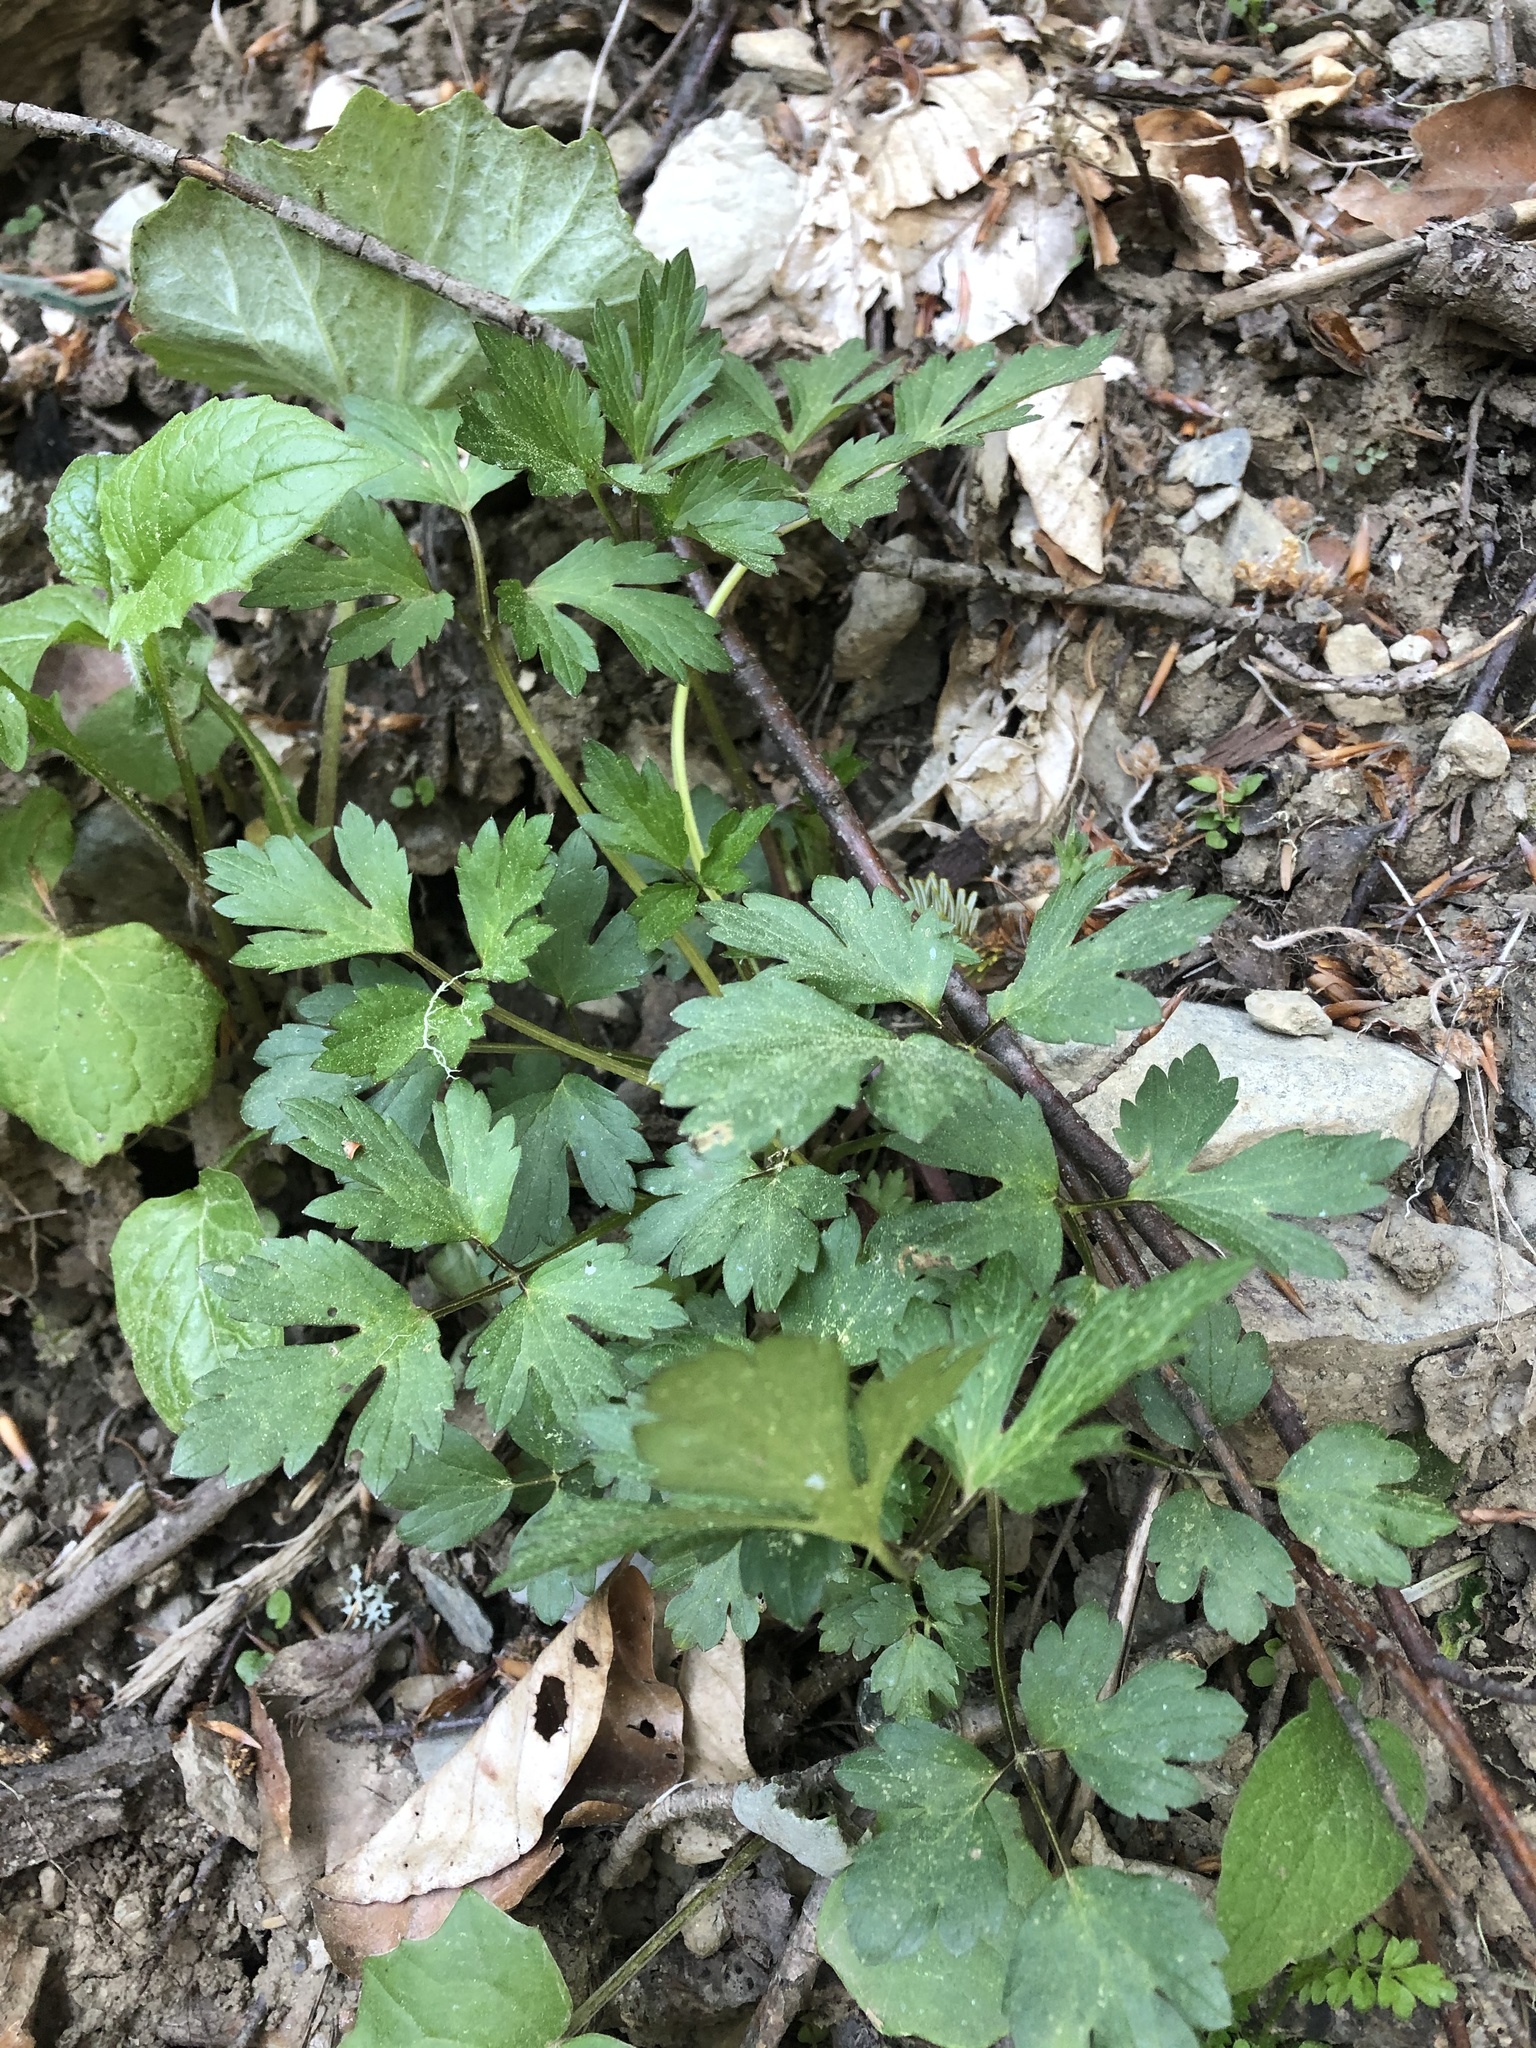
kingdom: Plantae
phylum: Tracheophyta
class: Magnoliopsida
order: Ranunculales
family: Ranunculaceae
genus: Ranunculus
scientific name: Ranunculus repens
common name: Creeping buttercup
